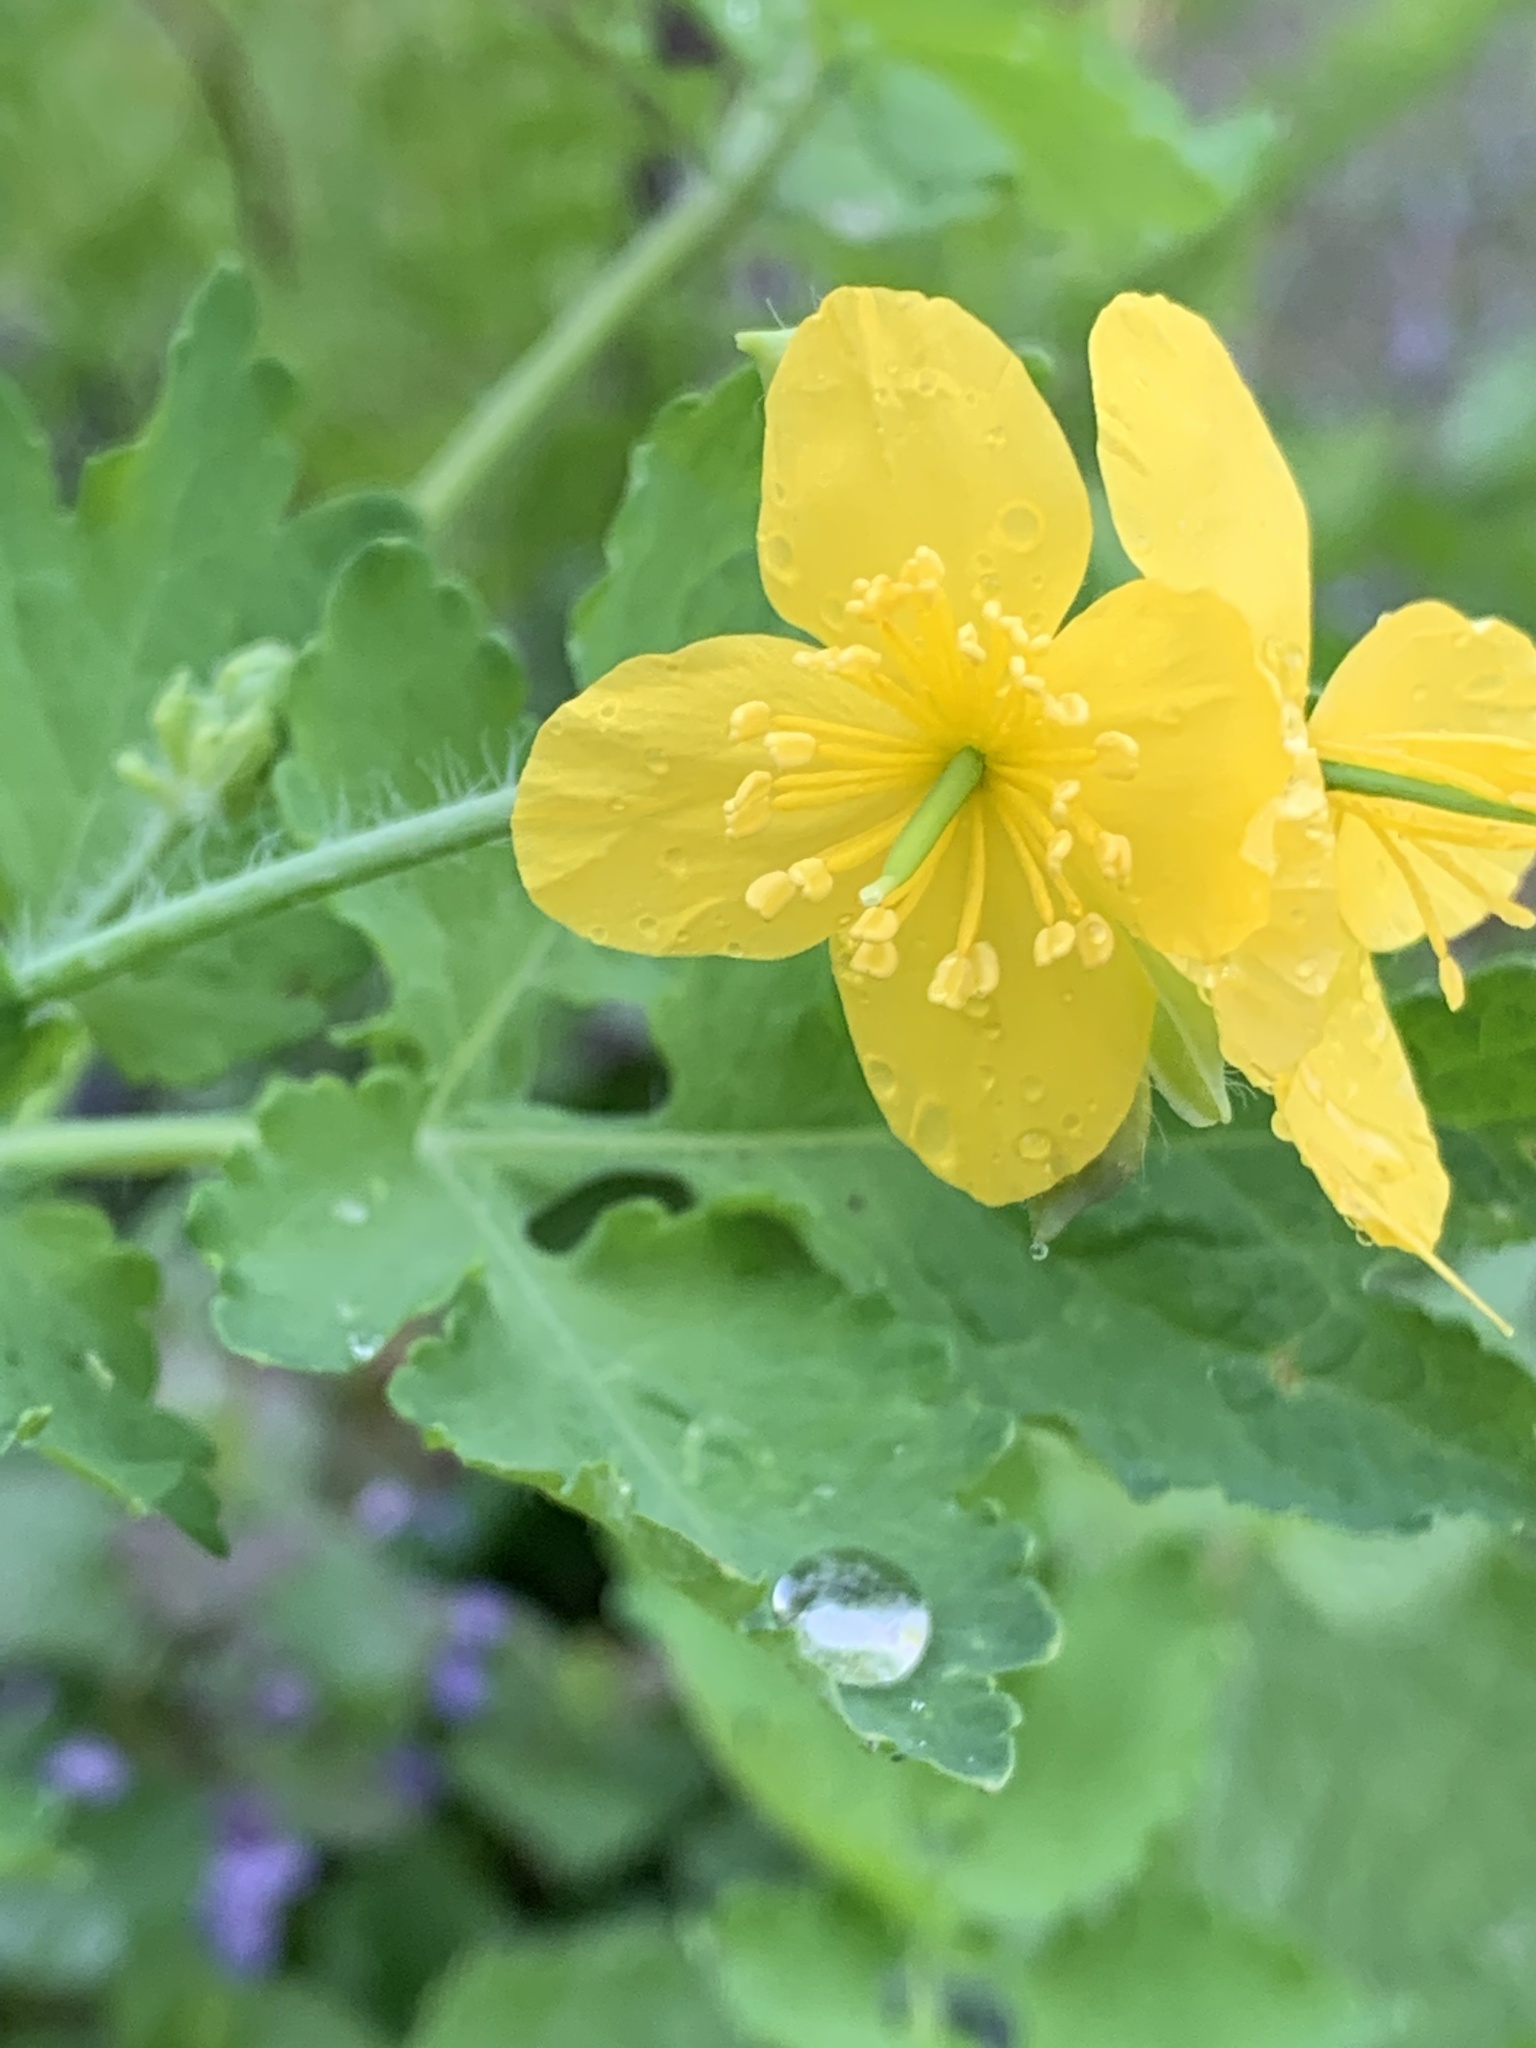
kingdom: Plantae
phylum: Tracheophyta
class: Magnoliopsida
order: Ranunculales
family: Papaveraceae
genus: Chelidonium
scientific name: Chelidonium majus
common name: Greater celandine
